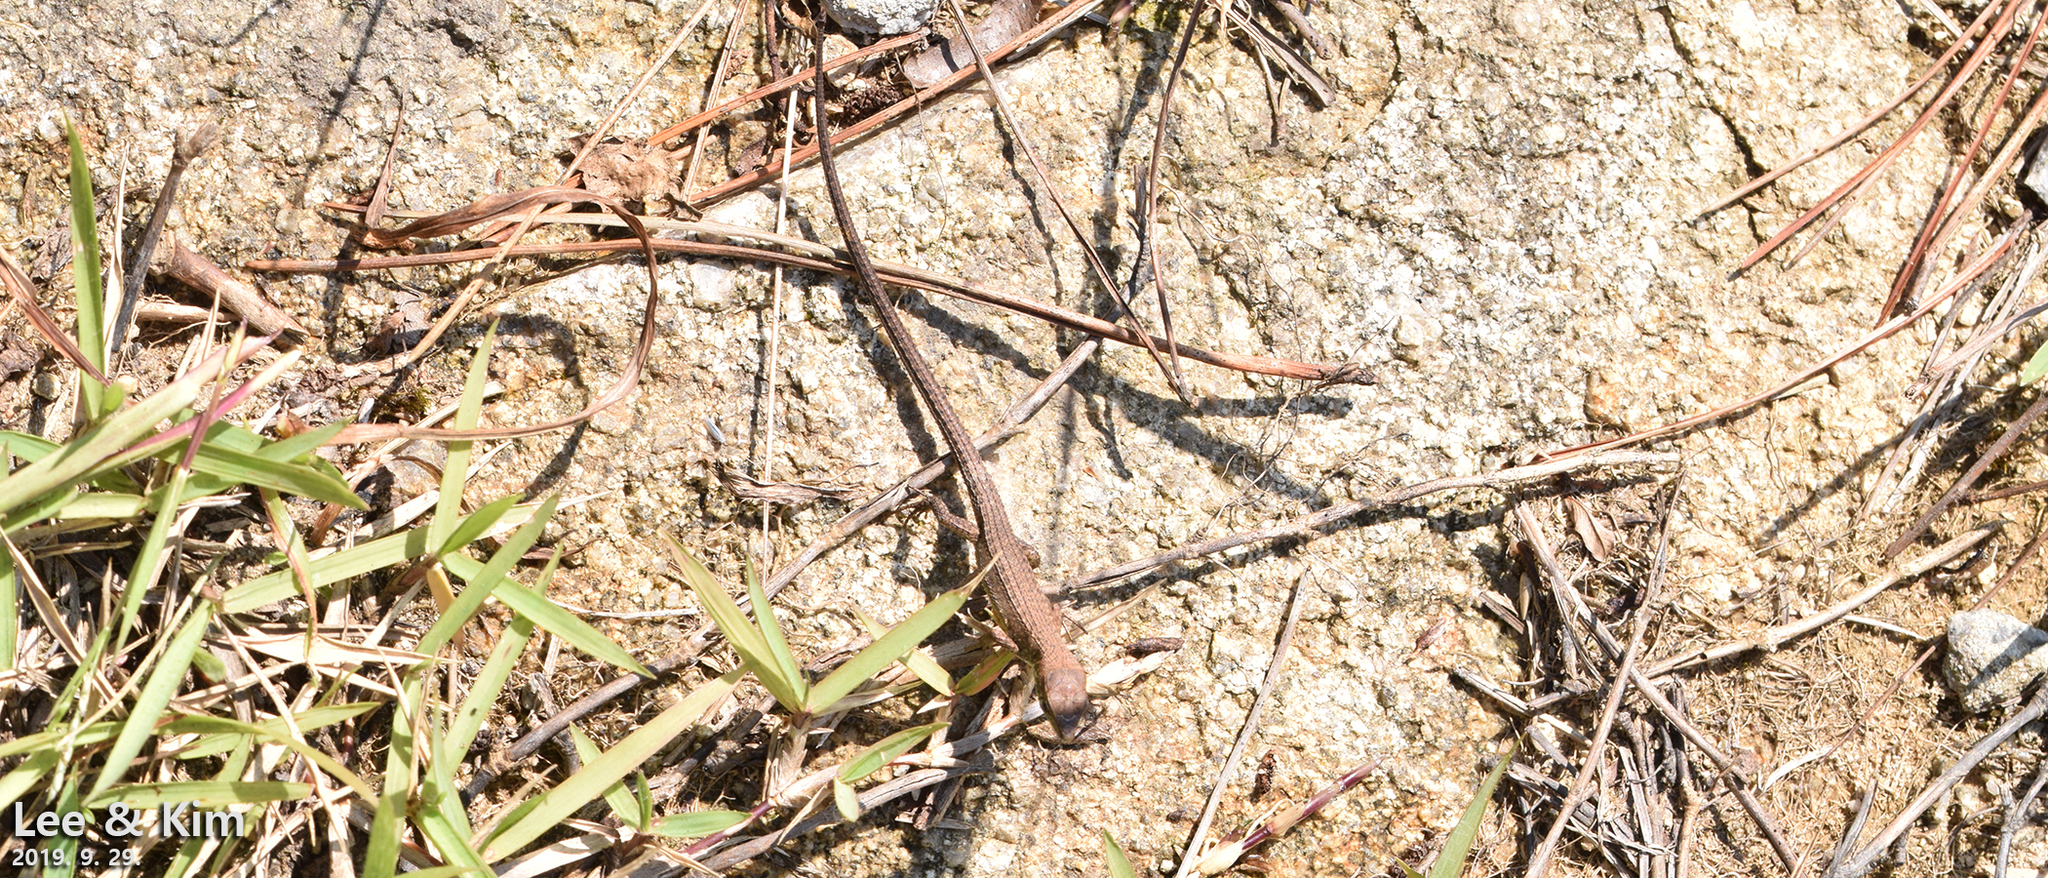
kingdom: Animalia
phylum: Chordata
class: Squamata
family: Lacertidae
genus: Takydromus
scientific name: Takydromus amurensis
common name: Amur grass lizard
